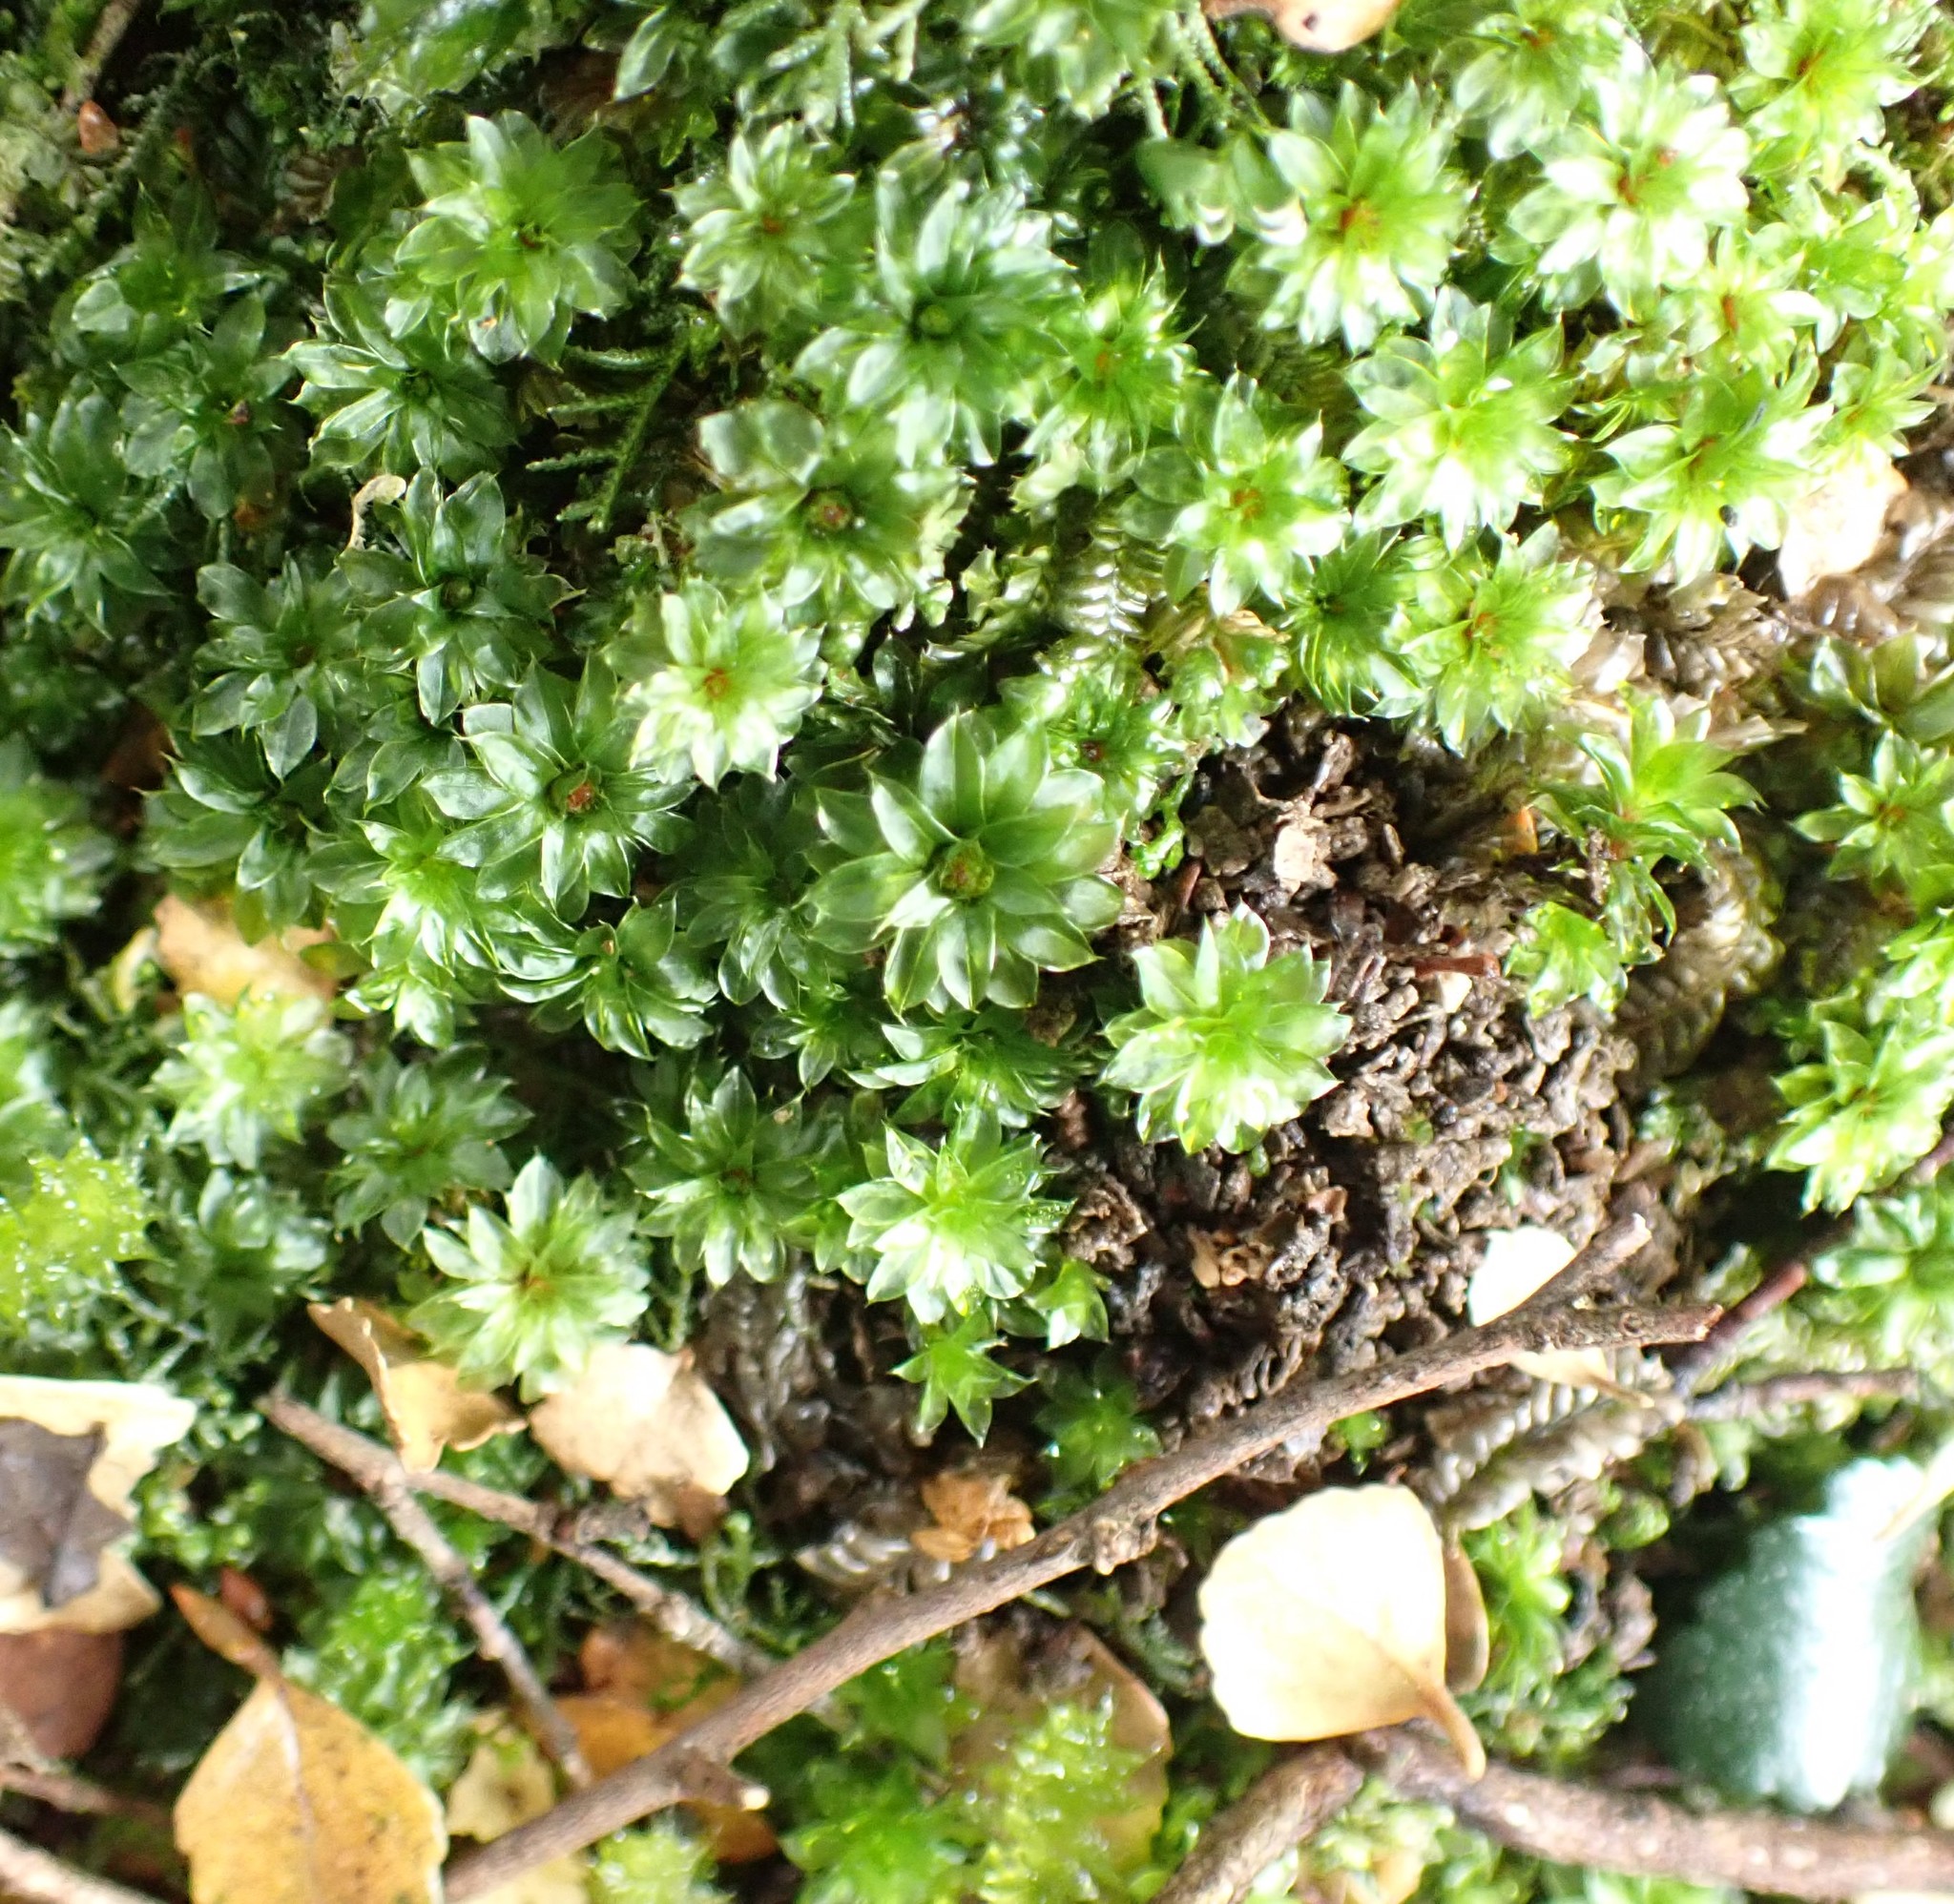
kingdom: Plantae
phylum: Bryophyta
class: Bryopsida
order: Bryales
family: Bryaceae
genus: Rosulabryum
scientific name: Rosulabryum billardierei
